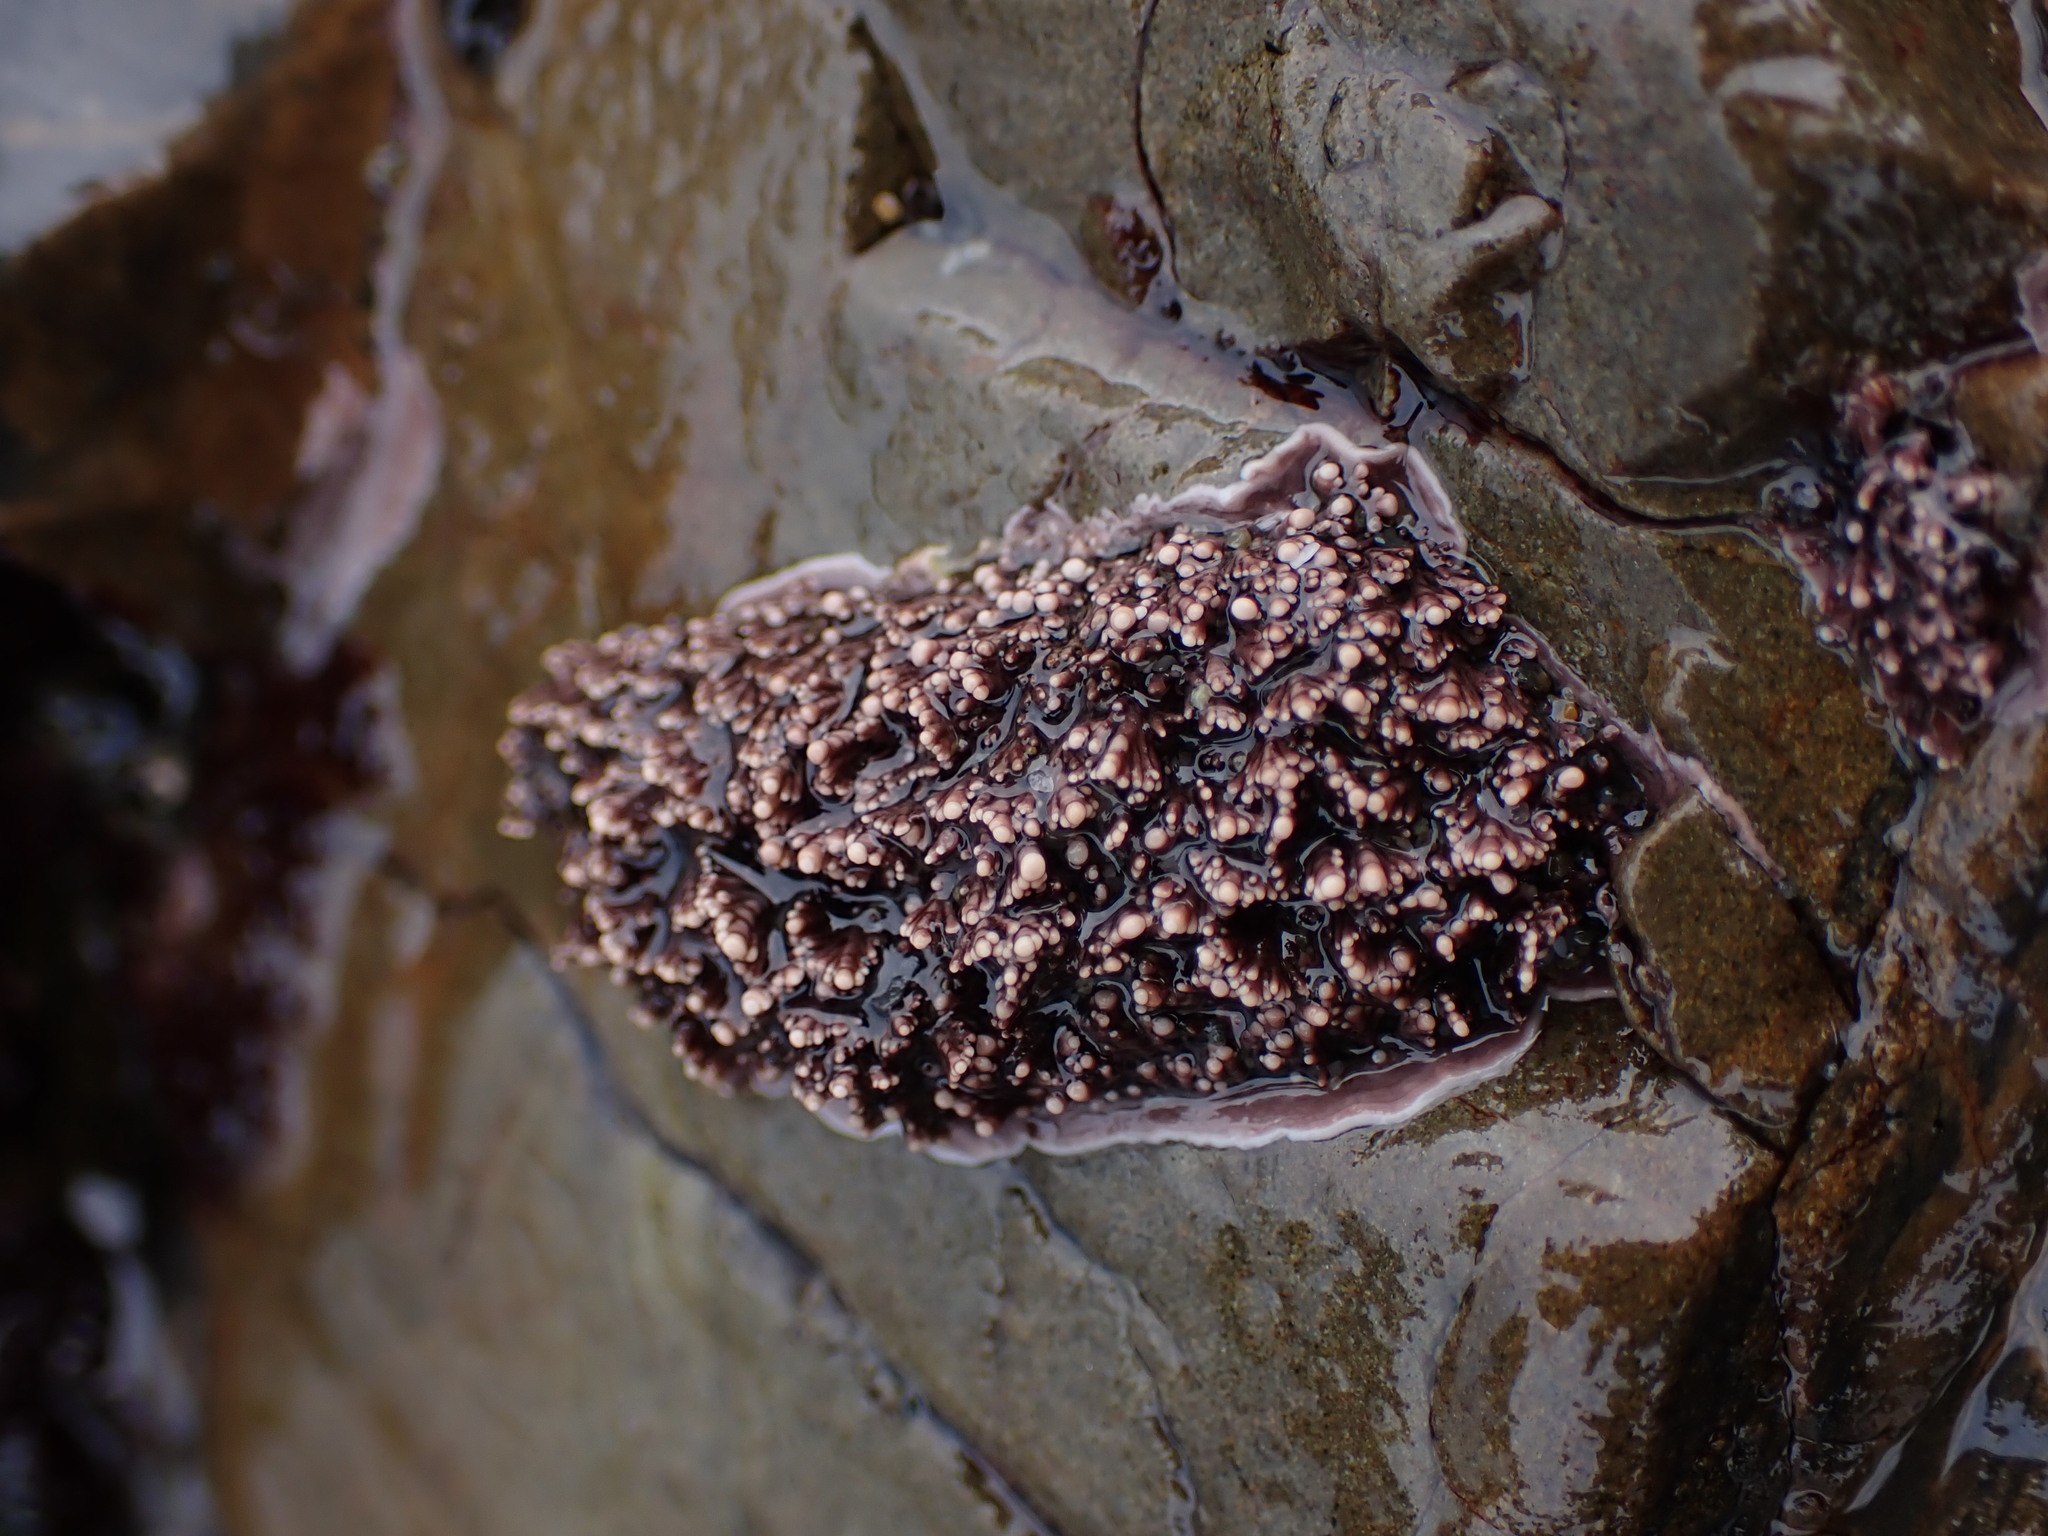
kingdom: Plantae
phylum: Rhodophyta
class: Florideophyceae
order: Corallinales
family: Corallinaceae
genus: Corallina
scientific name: Corallina officinalis
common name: Coral weed
